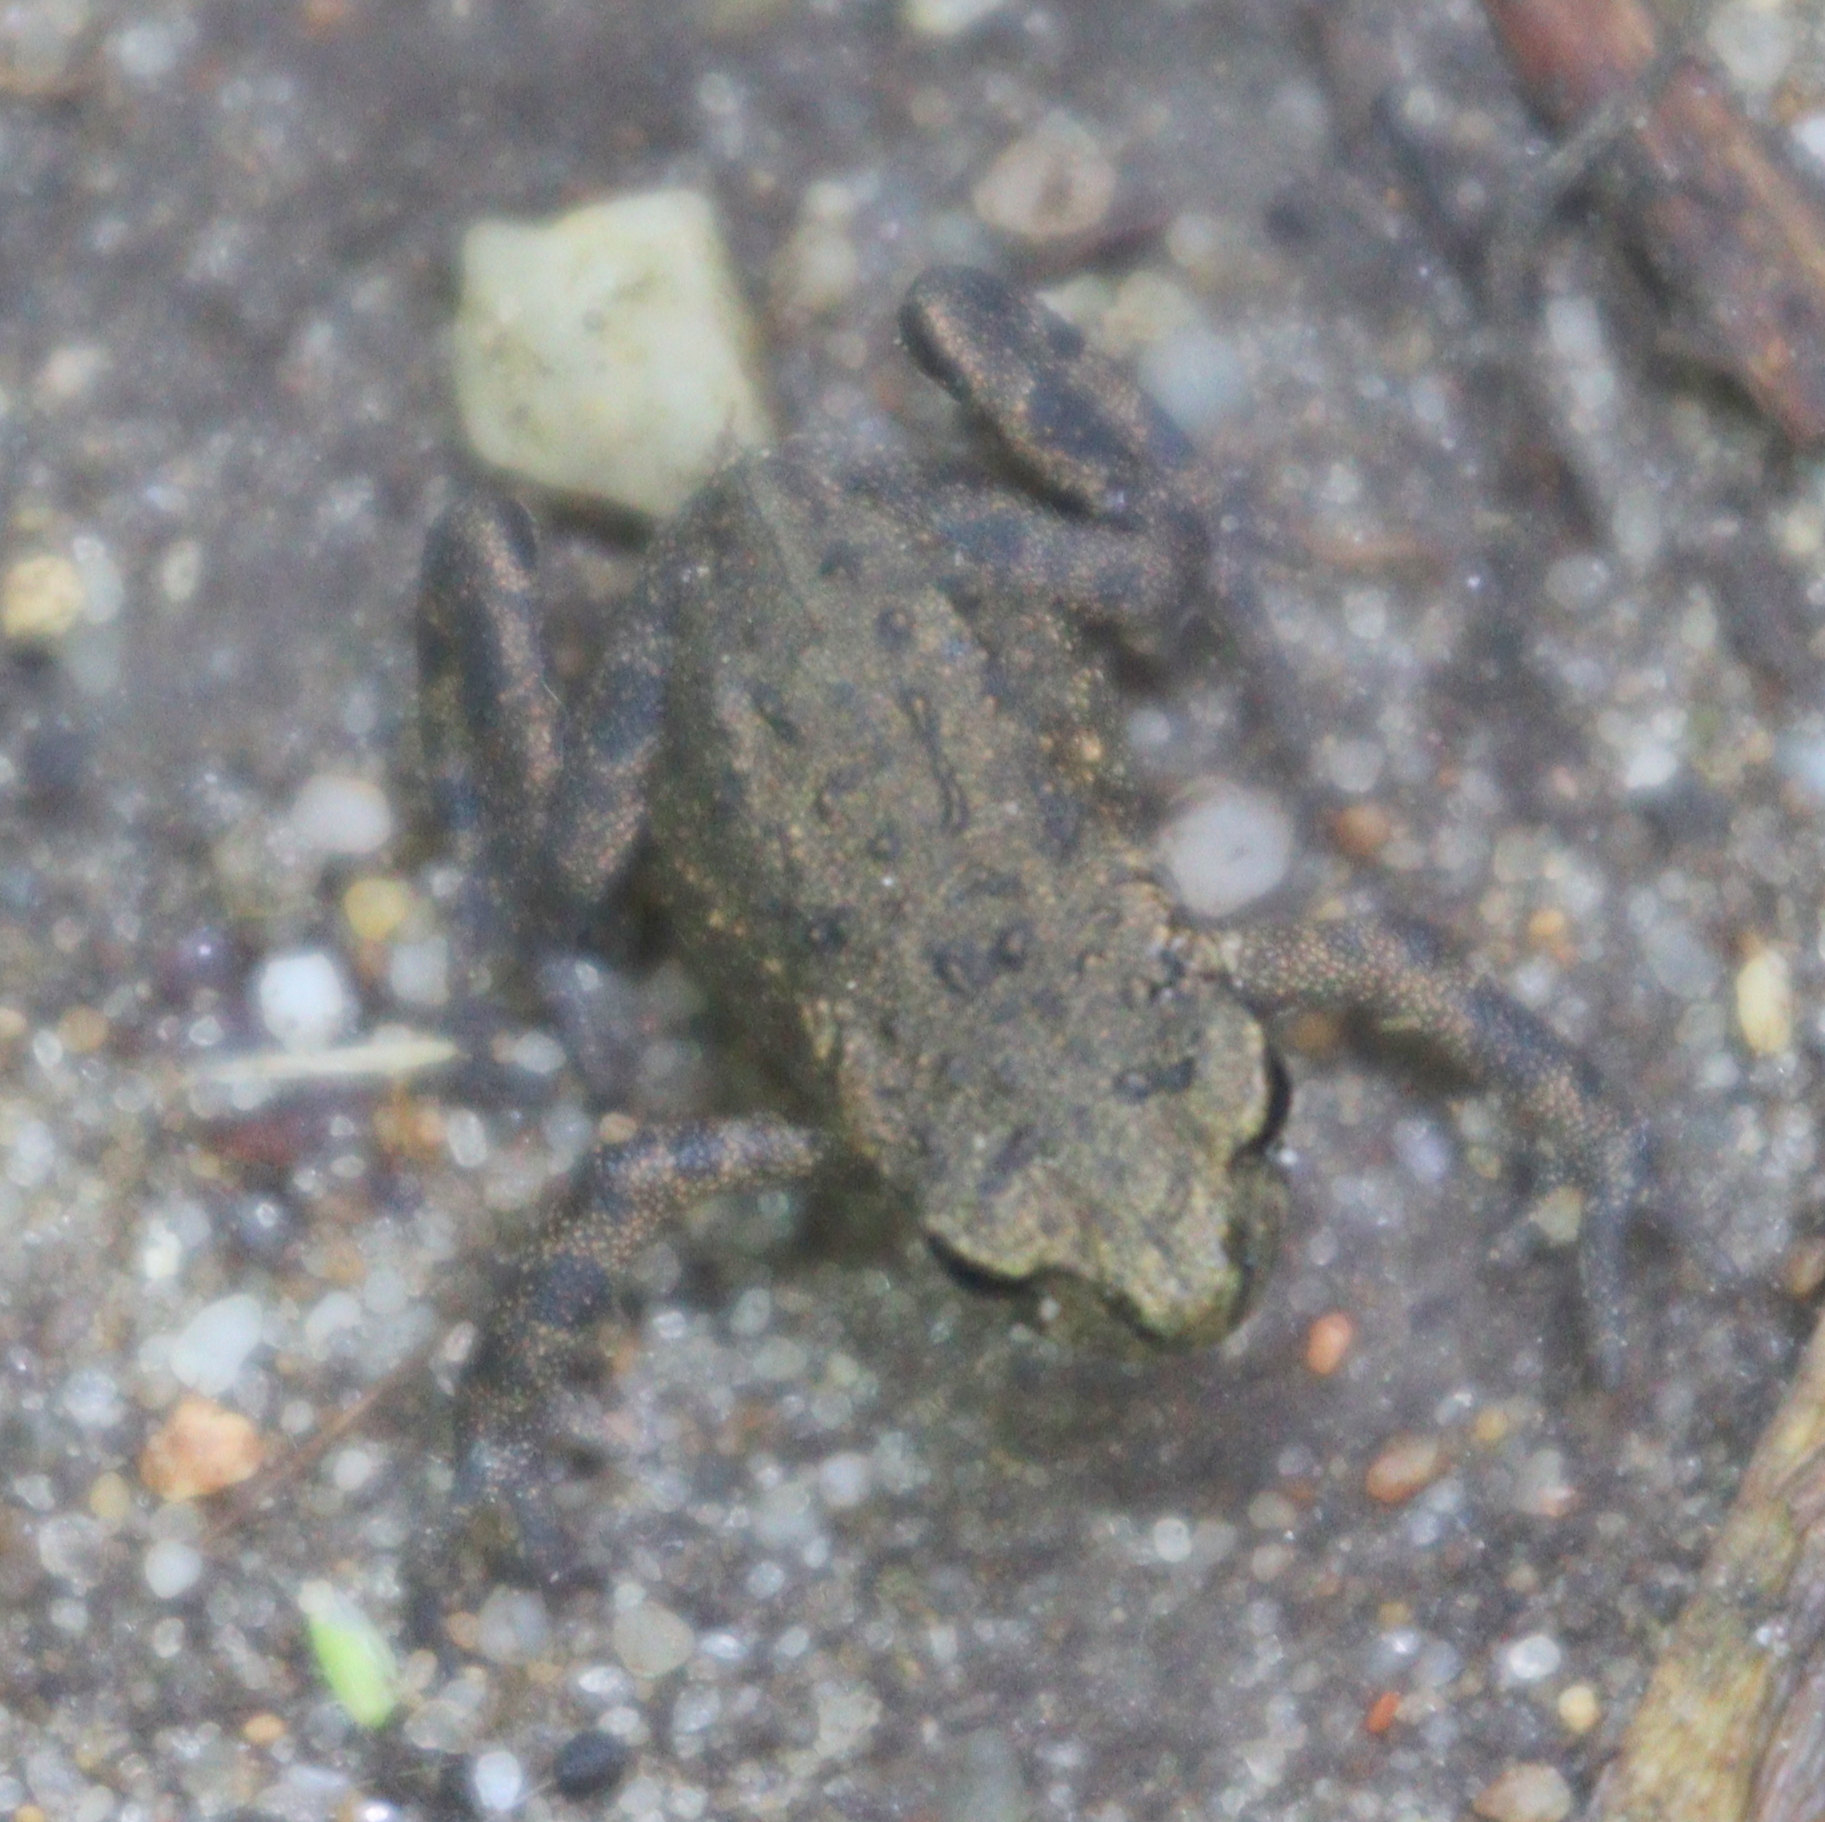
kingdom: Animalia
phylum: Chordata
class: Amphibia
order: Anura
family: Bufonidae
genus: Bufo
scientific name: Bufo bufo
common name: Common toad
